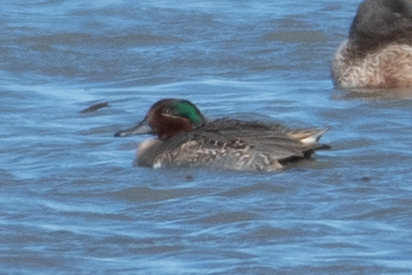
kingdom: Animalia
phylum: Chordata
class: Aves
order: Anseriformes
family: Anatidae
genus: Anas
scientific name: Anas crecca
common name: Eurasian teal
